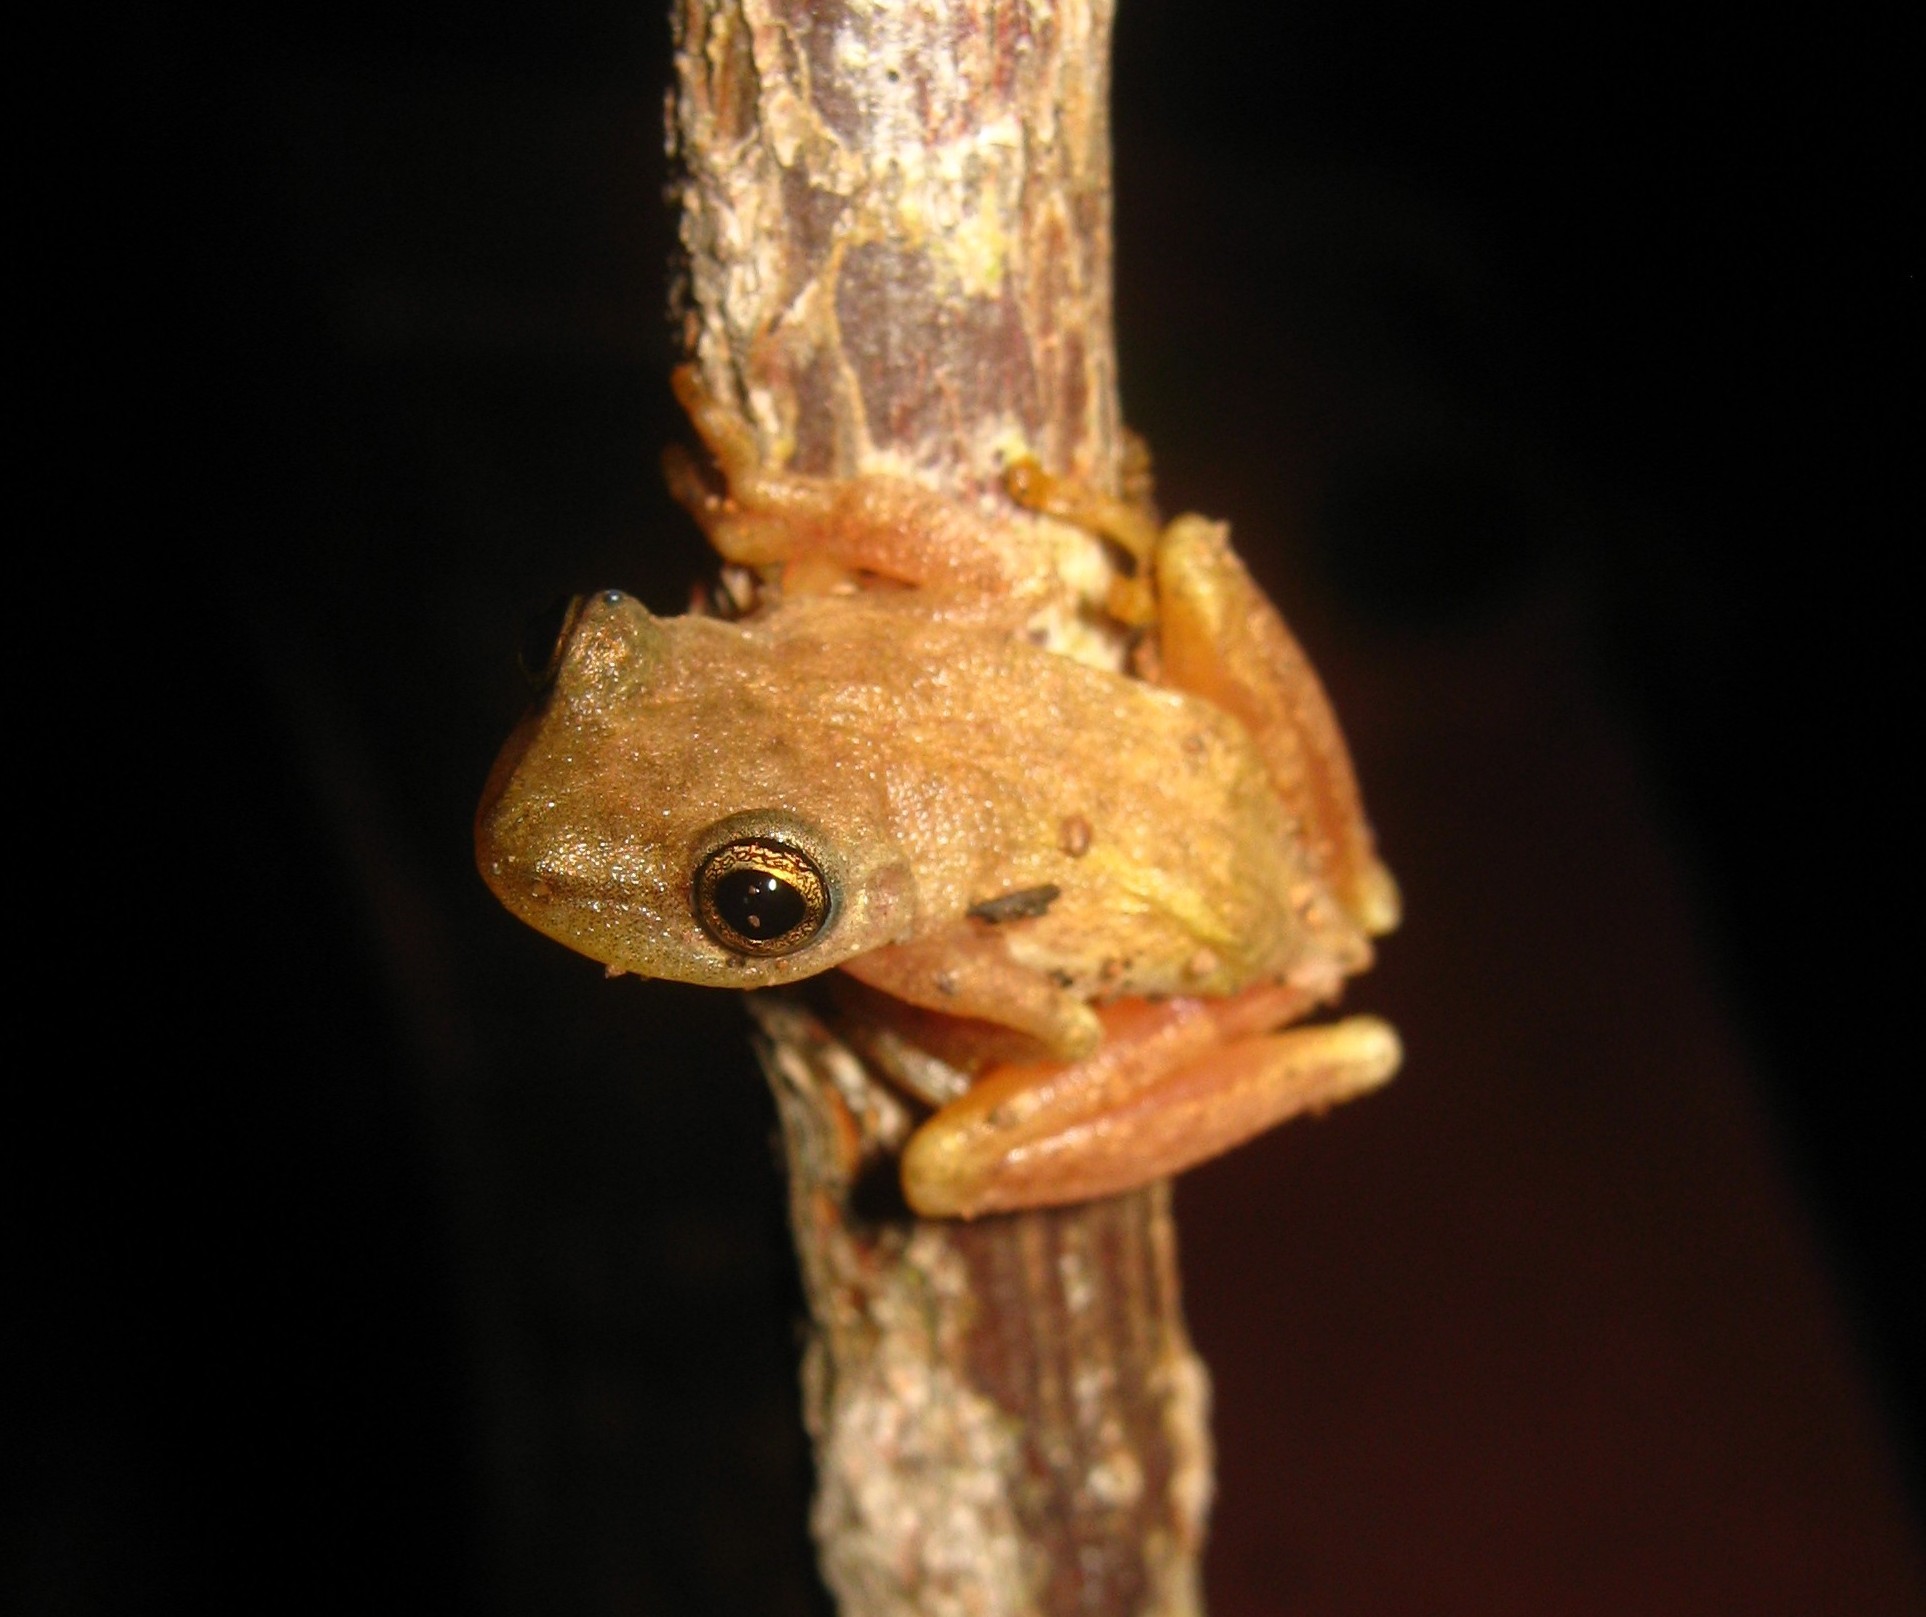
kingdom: Animalia
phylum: Chordata
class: Amphibia
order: Anura
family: Hylidae
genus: Exerodonta
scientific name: Exerodonta smaragdina
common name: Emerald treefrog
